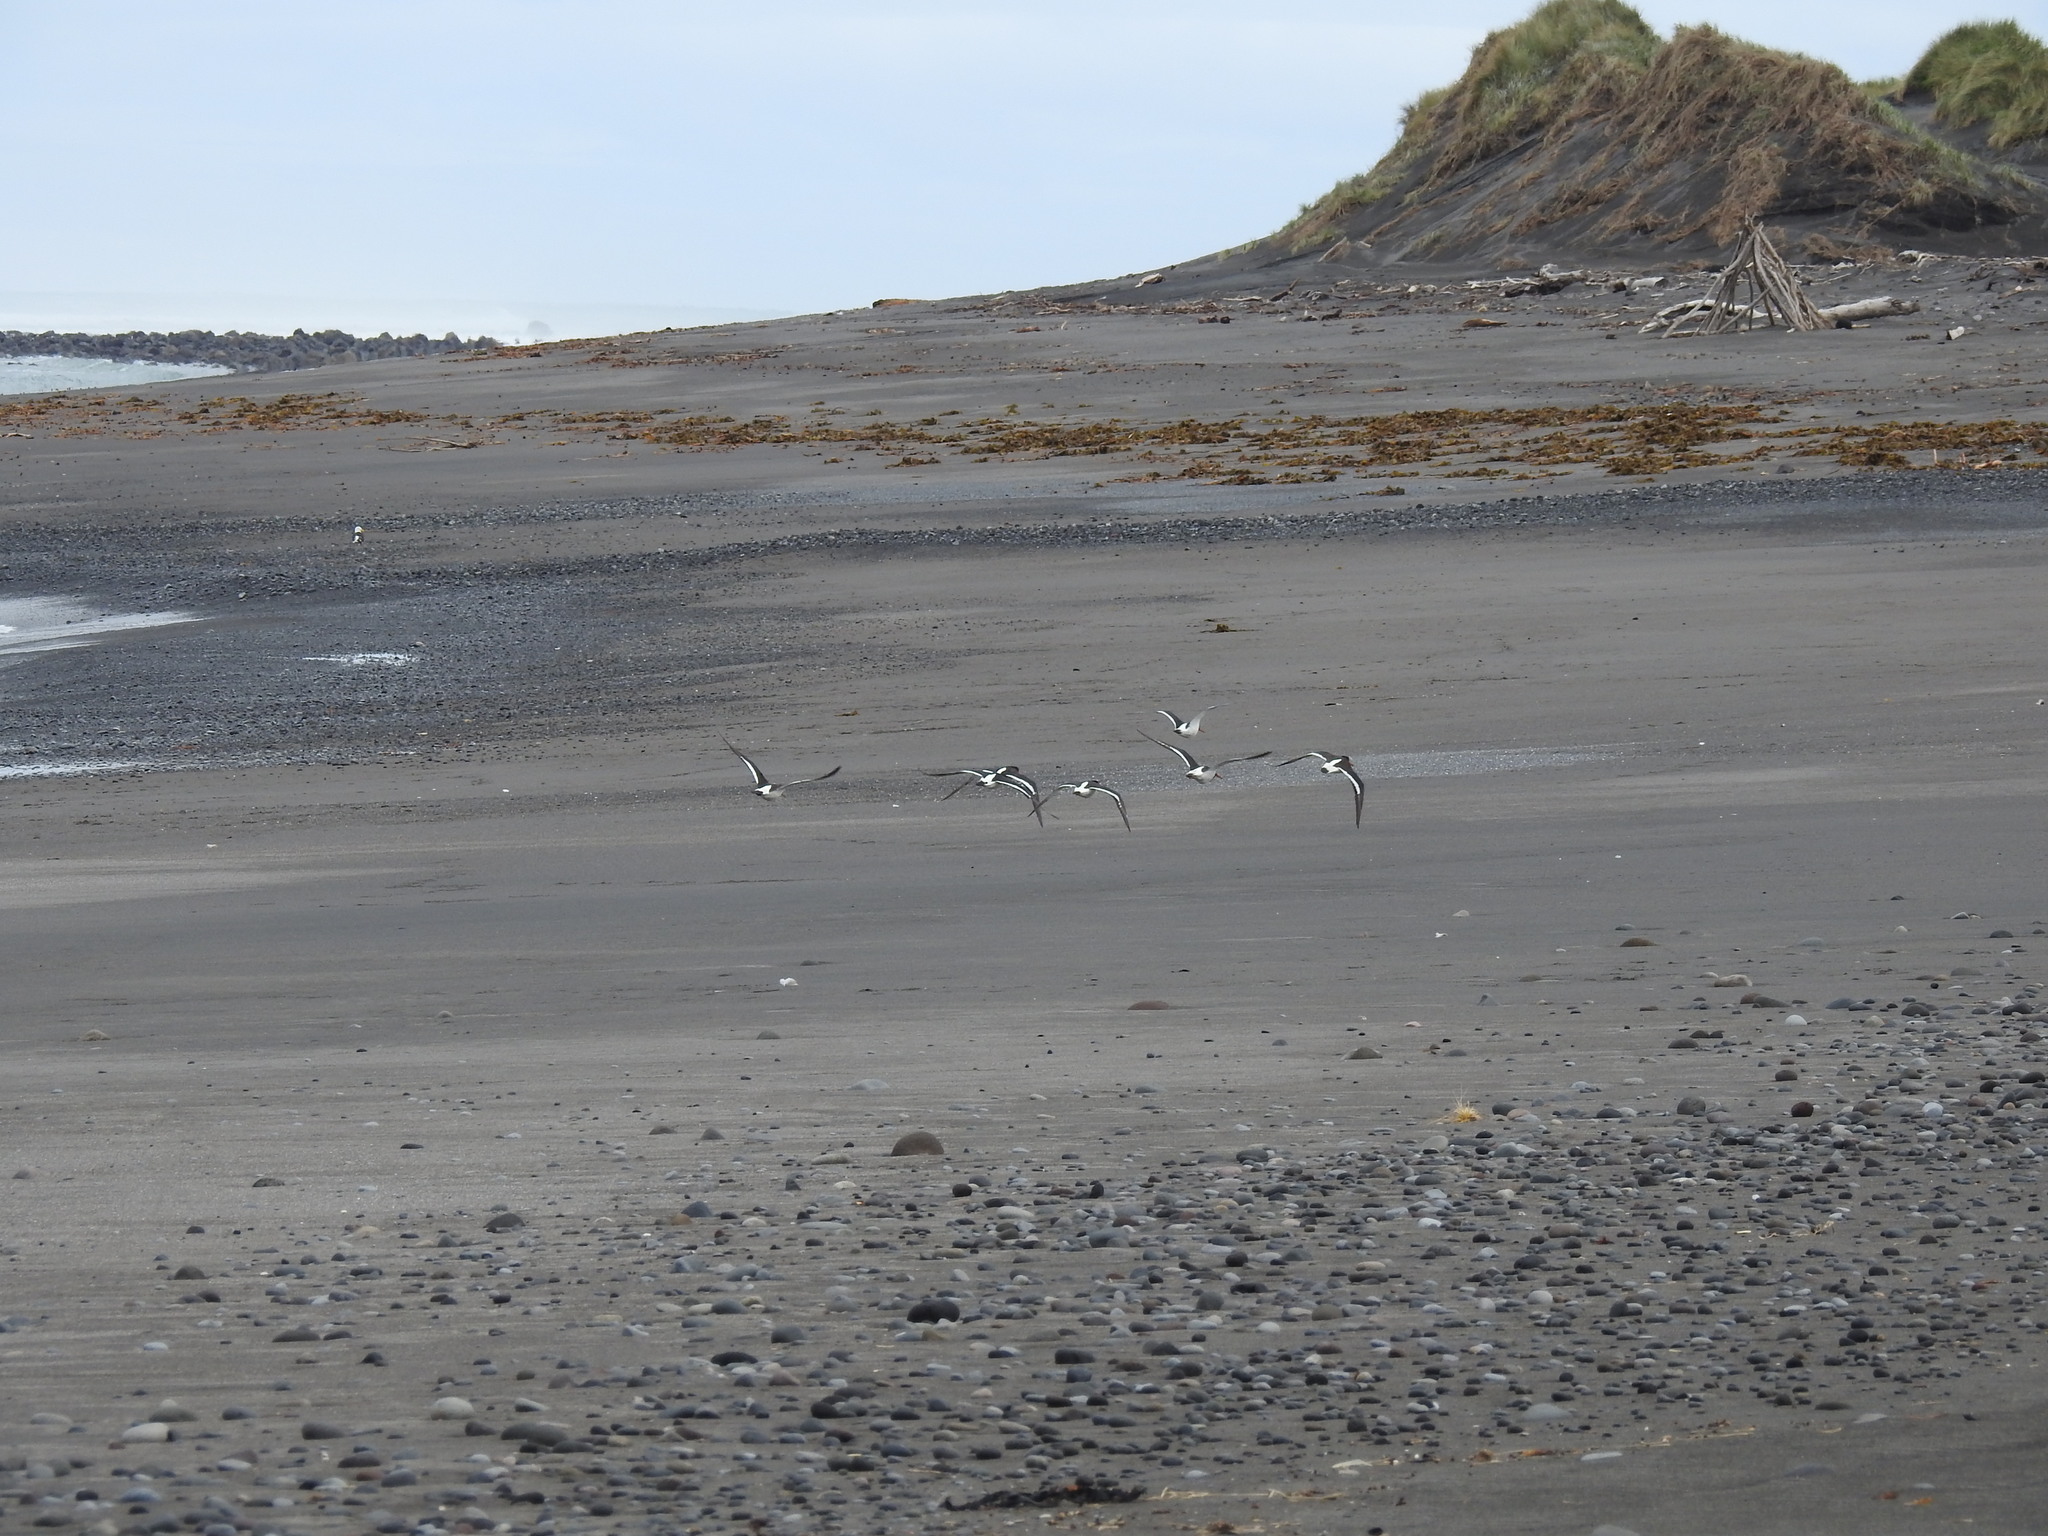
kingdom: Animalia
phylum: Chordata
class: Aves
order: Charadriiformes
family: Haematopodidae
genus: Haematopus
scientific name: Haematopus finschi
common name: South island oystercatcher
